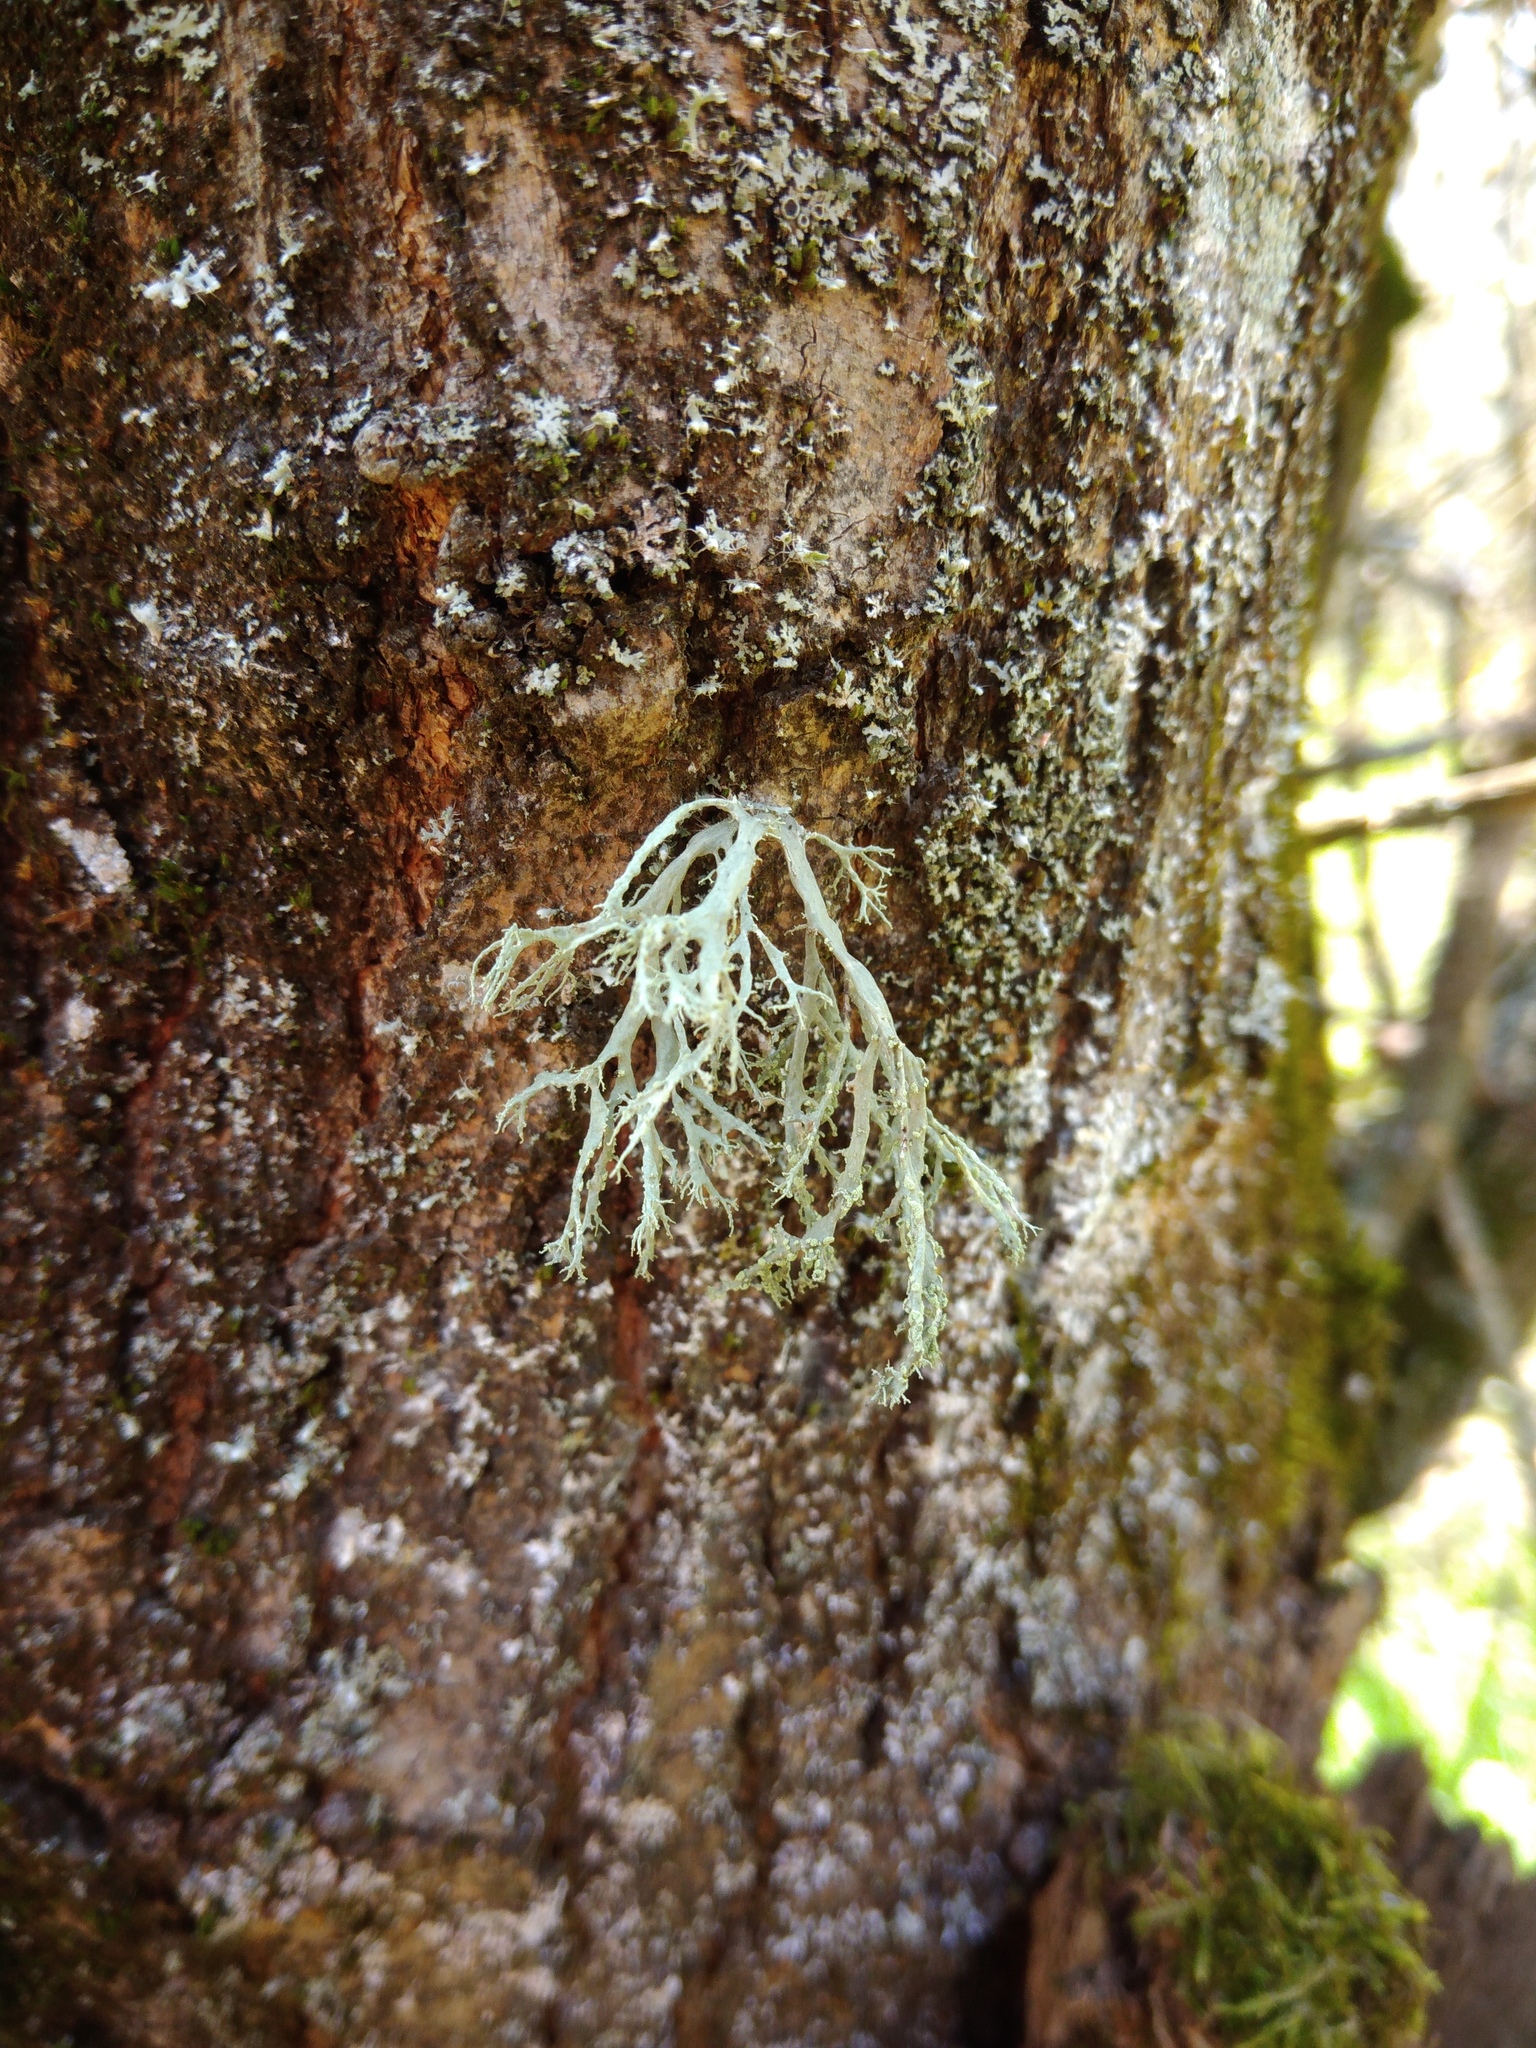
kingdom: Fungi
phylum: Ascomycota
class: Lecanoromycetes
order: Lecanorales
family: Ramalinaceae
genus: Ramalina
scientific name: Ramalina farinacea
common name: Farinose cartilage lichen
